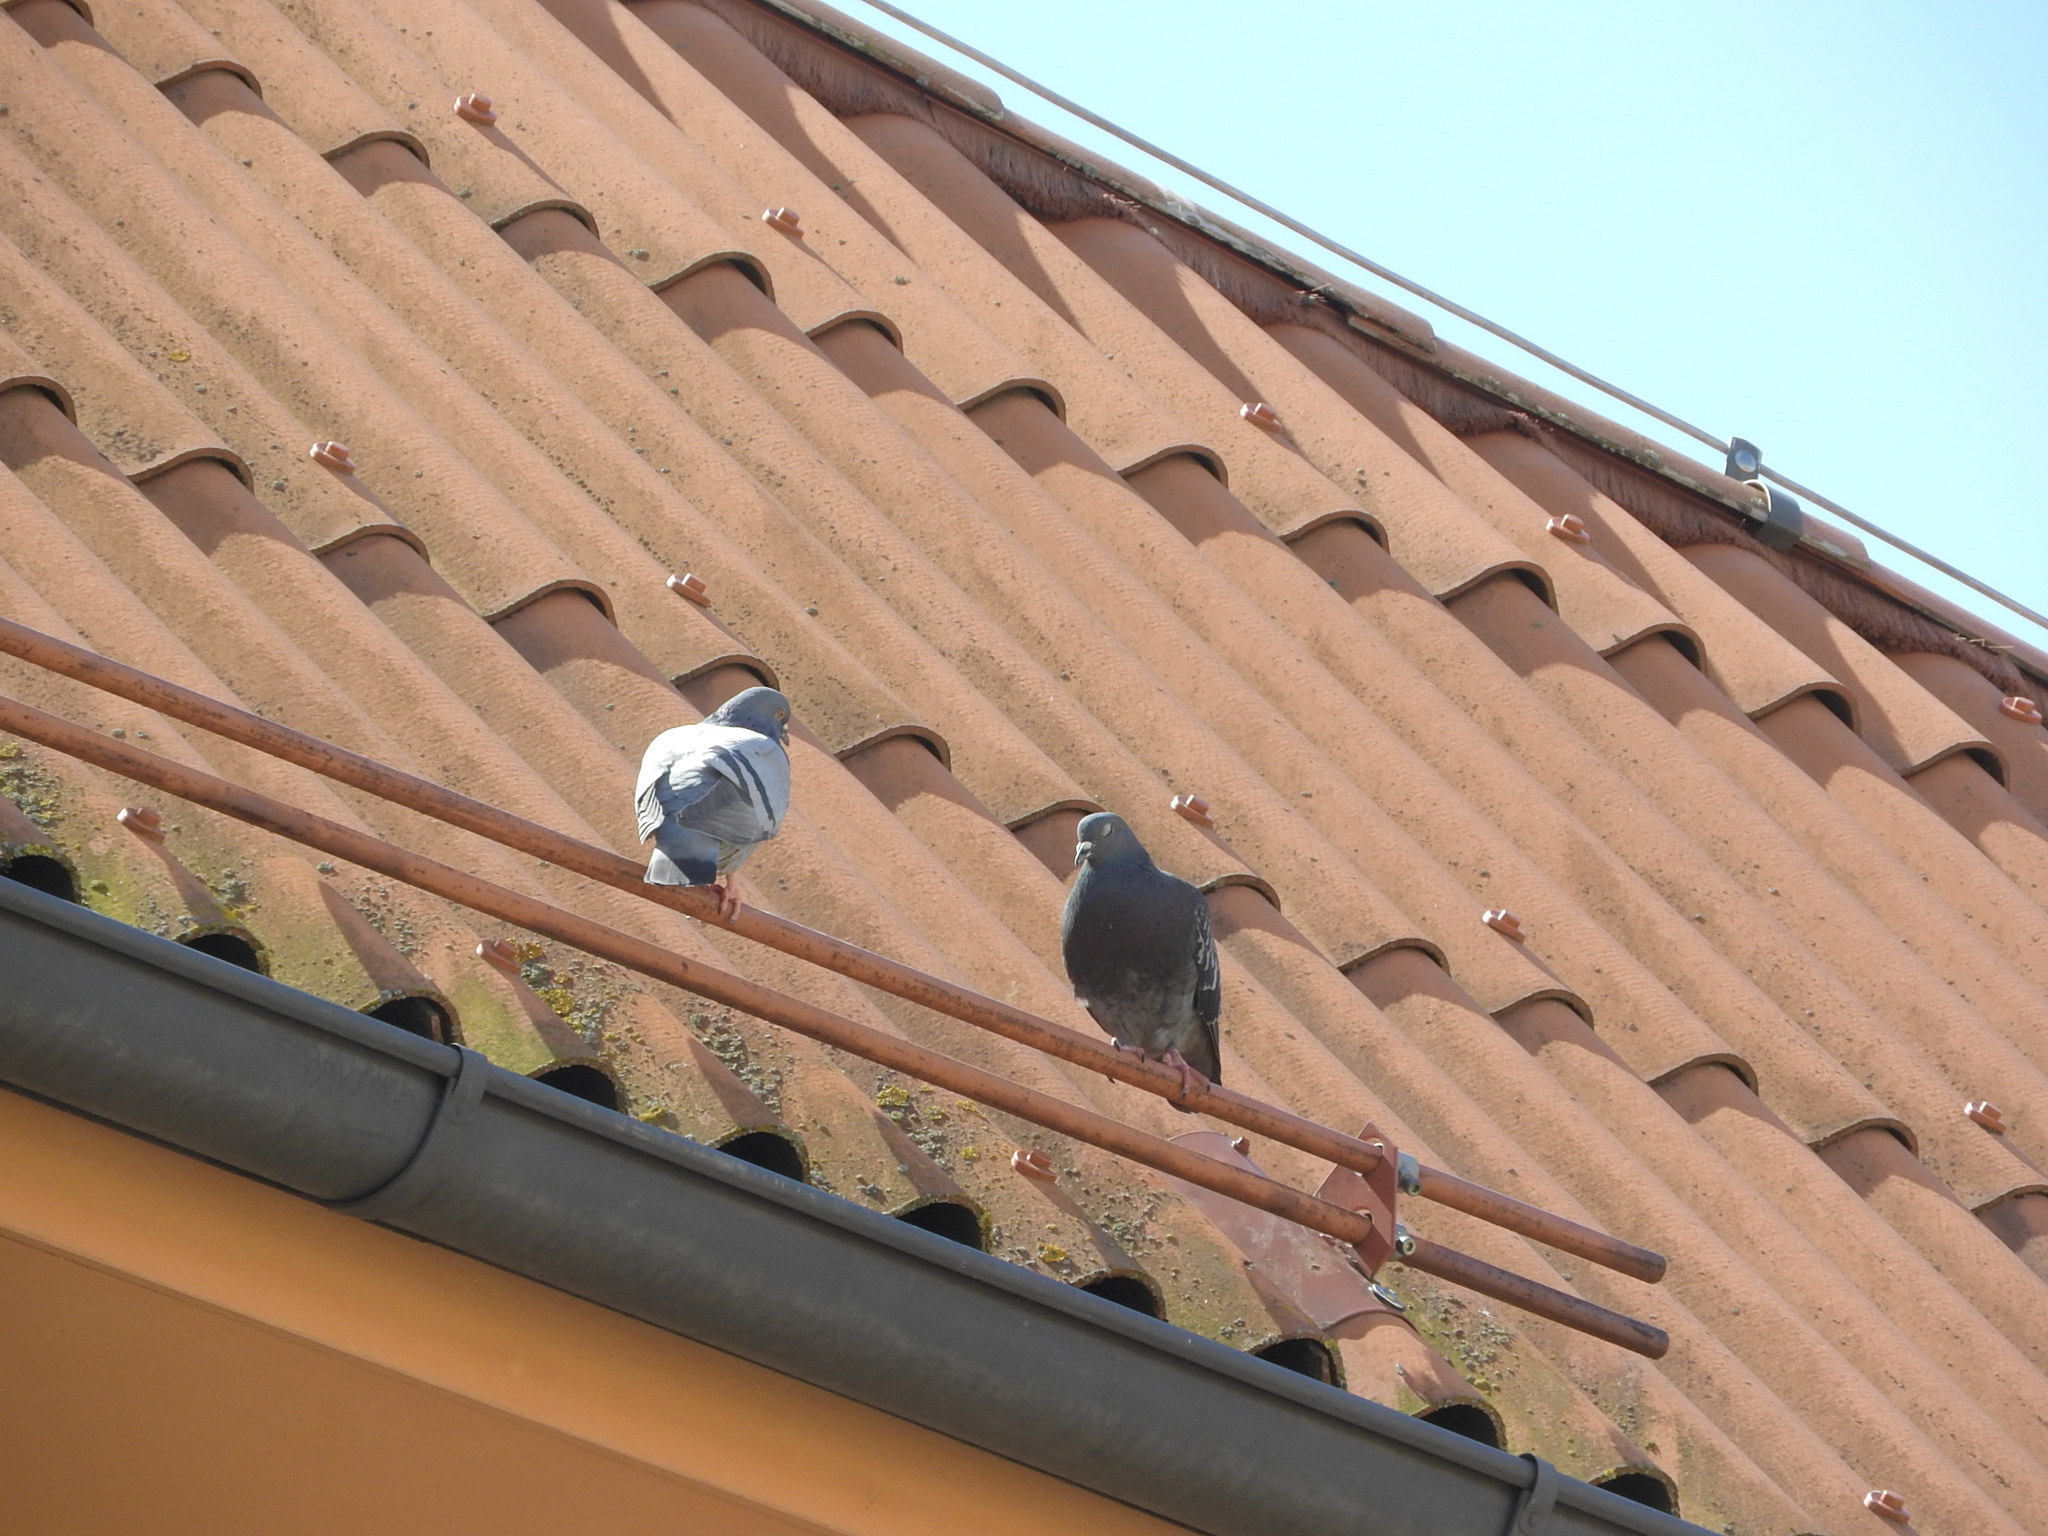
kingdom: Animalia
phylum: Chordata
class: Aves
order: Columbiformes
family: Columbidae
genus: Columba
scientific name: Columba livia
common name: Rock pigeon
